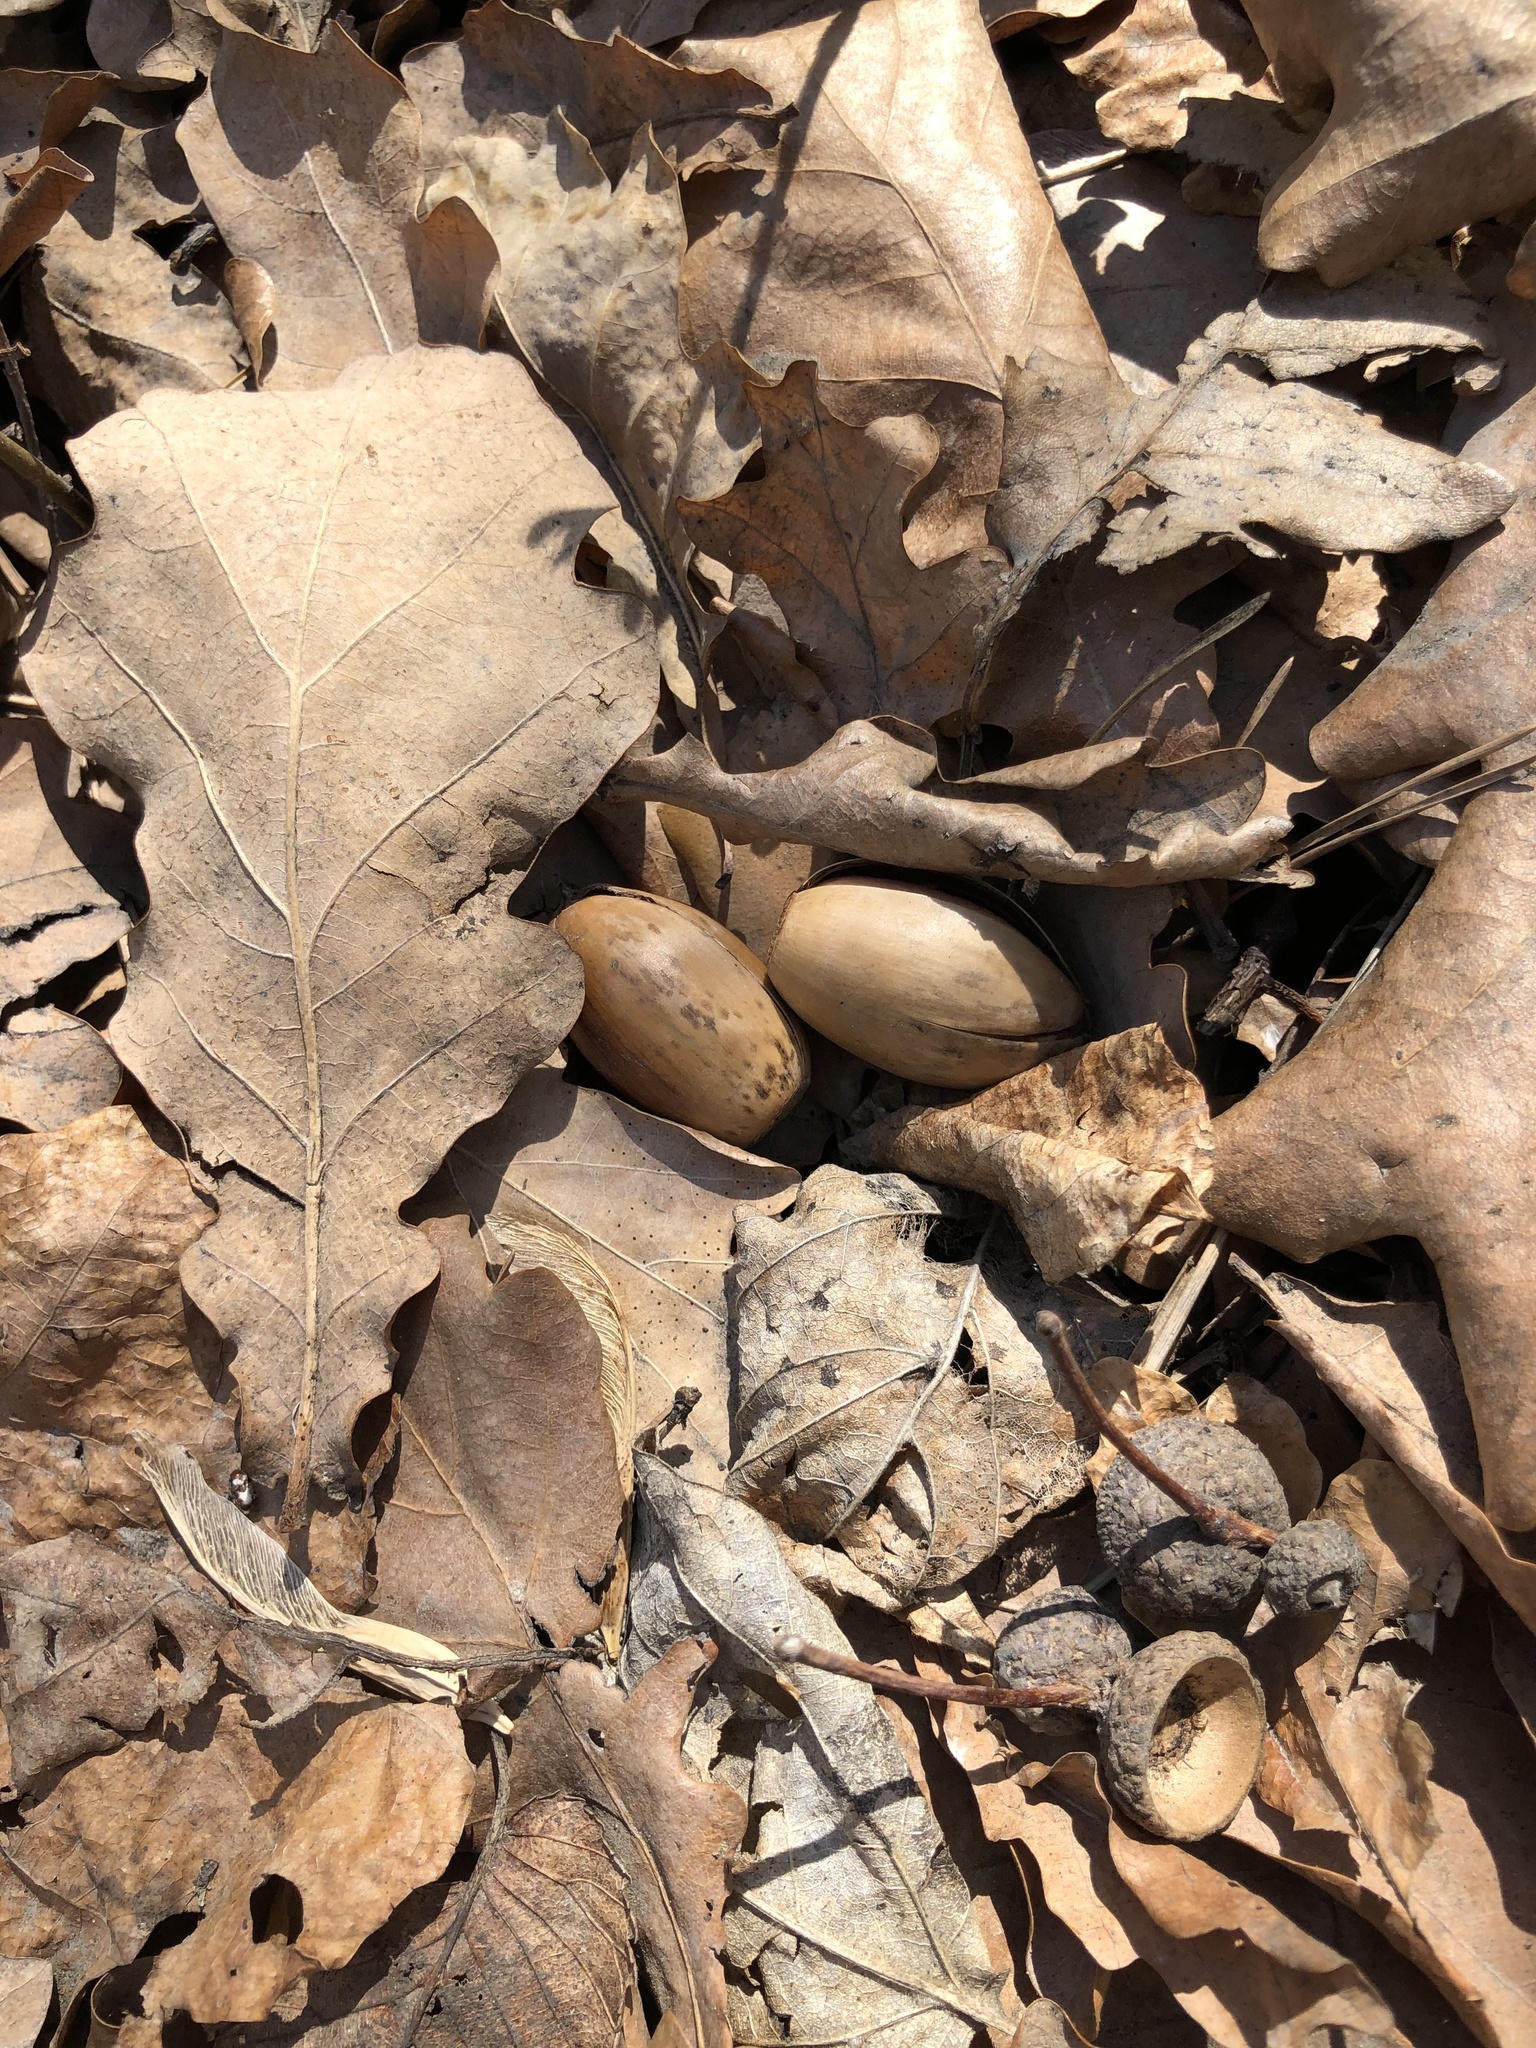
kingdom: Plantae
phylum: Tracheophyta
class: Magnoliopsida
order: Fagales
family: Fagaceae
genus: Quercus
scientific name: Quercus robur
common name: Pedunculate oak
